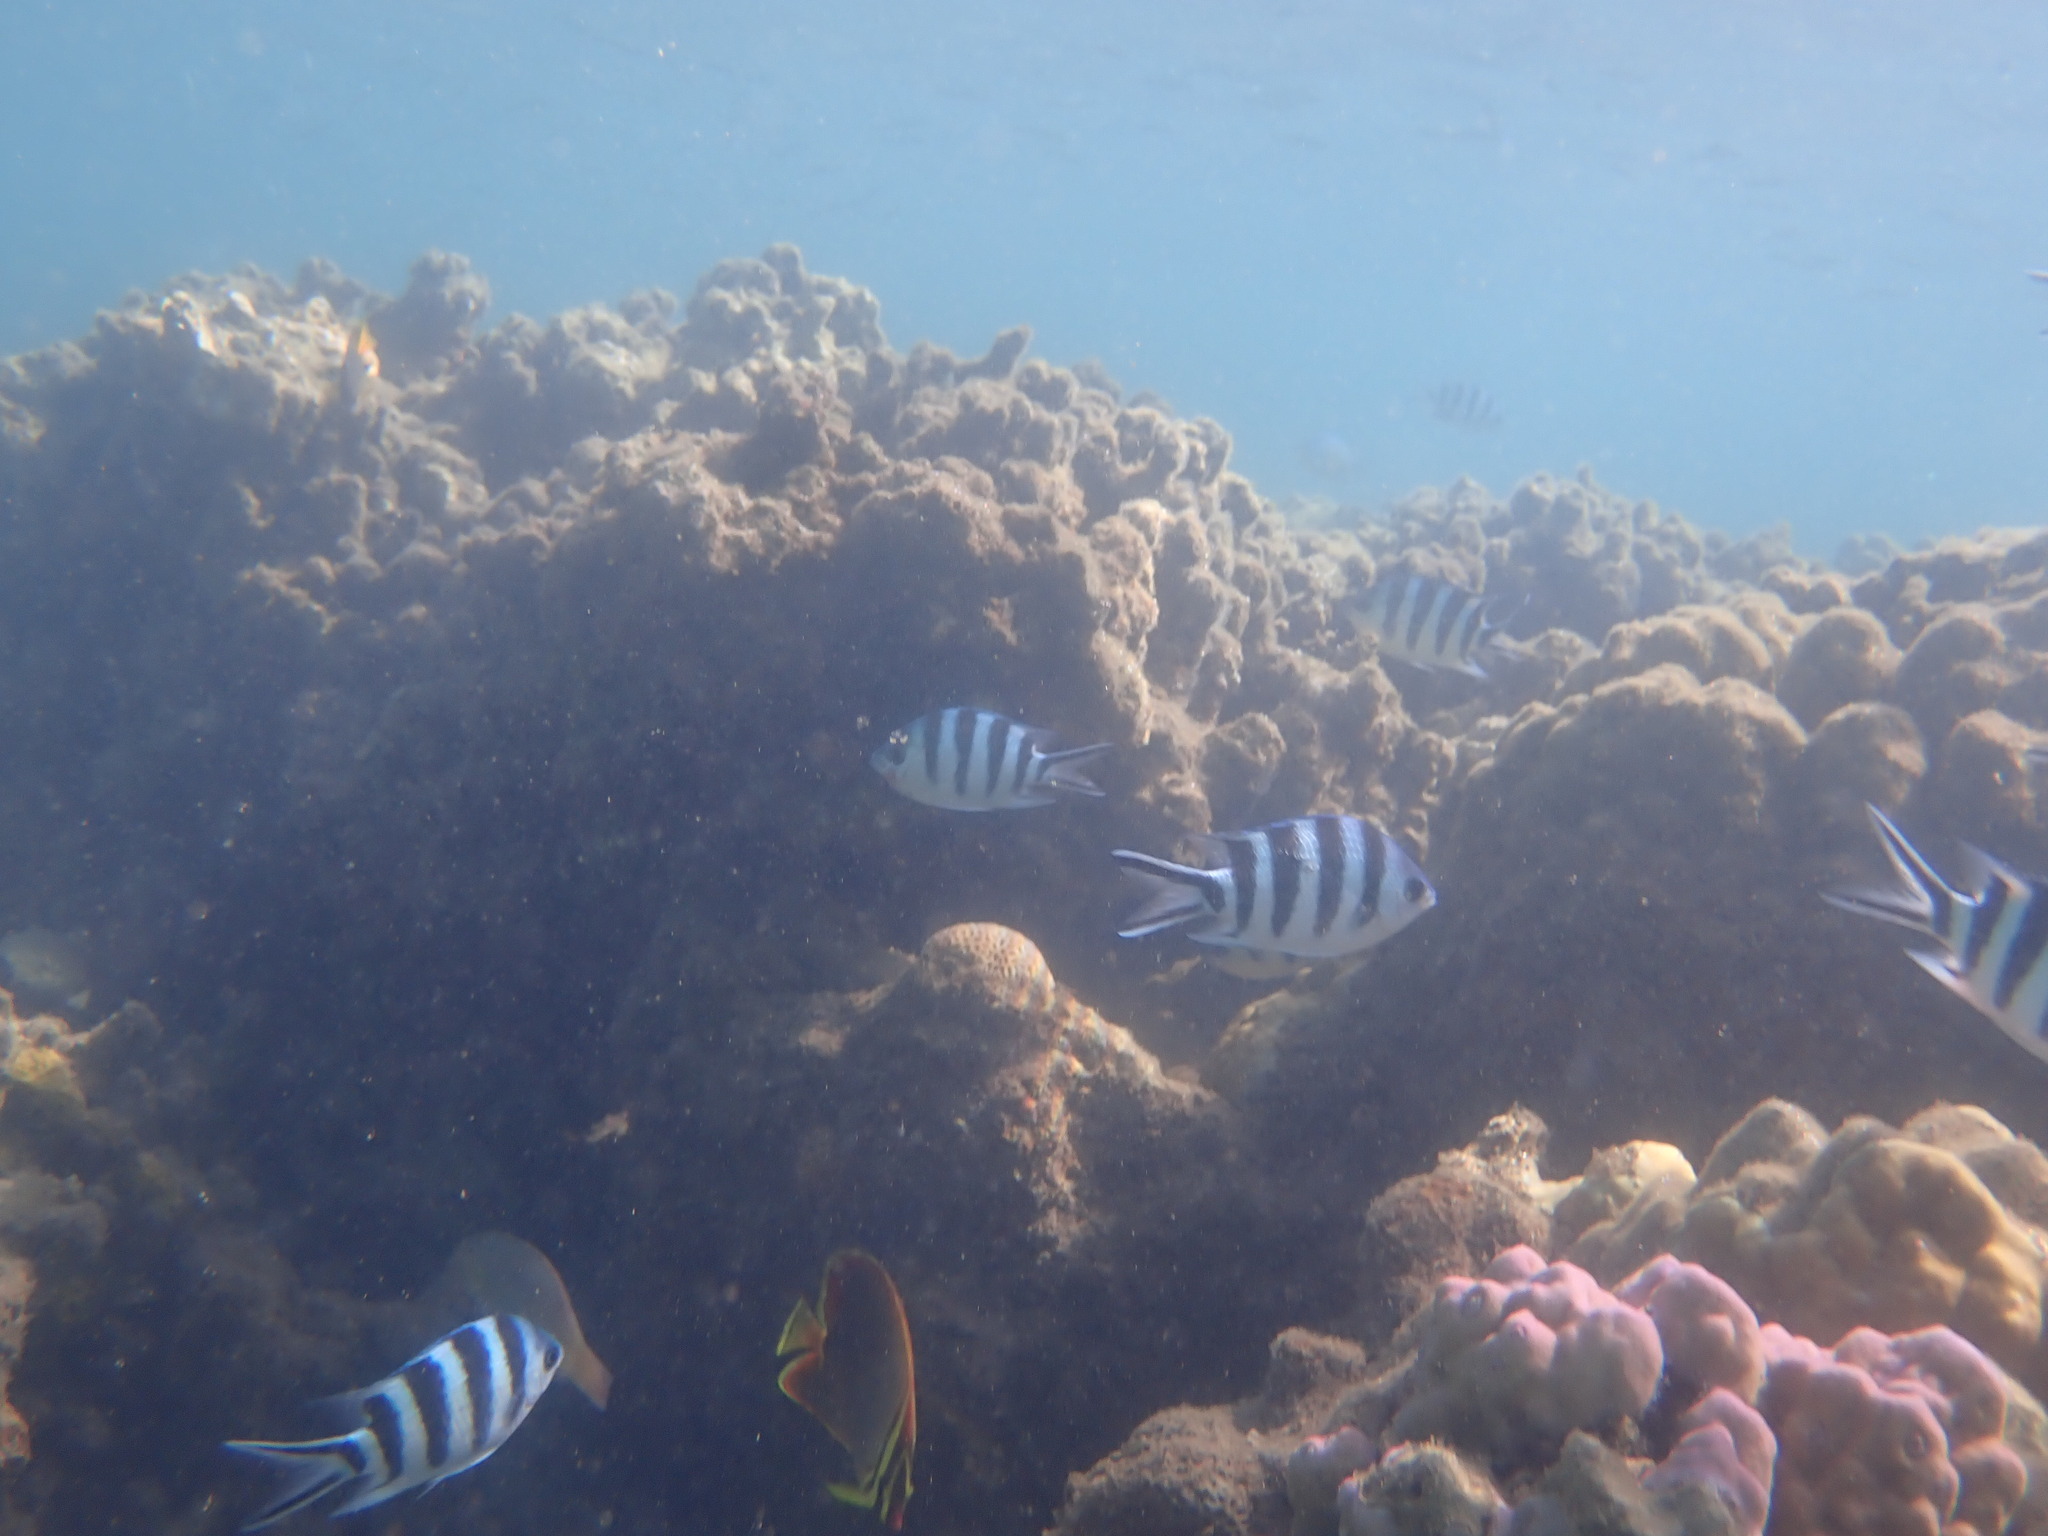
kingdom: Animalia
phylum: Chordata
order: Perciformes
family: Pomacentridae
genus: Abudefduf
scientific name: Abudefduf sexfasciatus
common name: Scissortail sergeant
